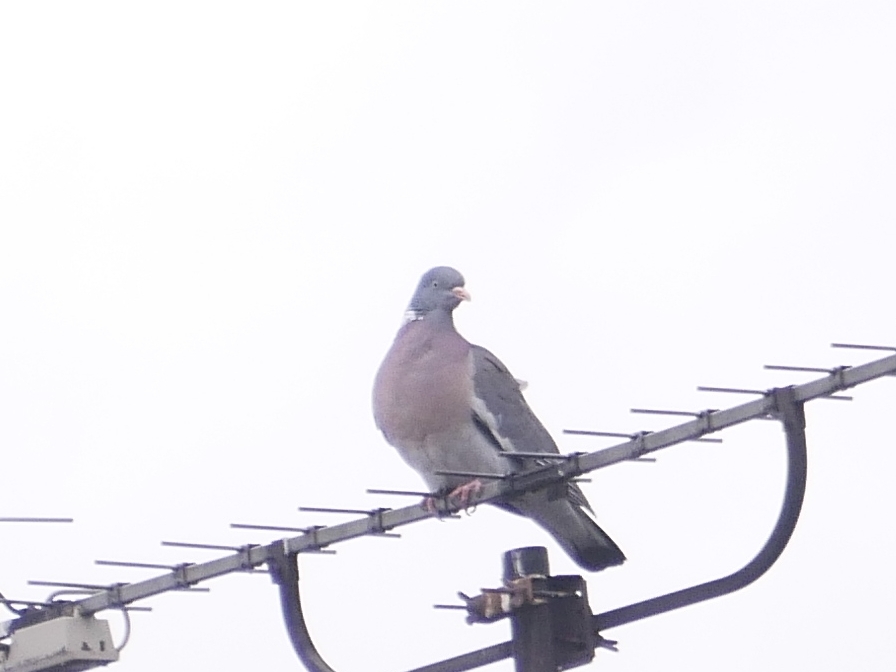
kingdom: Animalia
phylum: Chordata
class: Aves
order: Columbiformes
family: Columbidae
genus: Columba
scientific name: Columba palumbus
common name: Common wood pigeon
